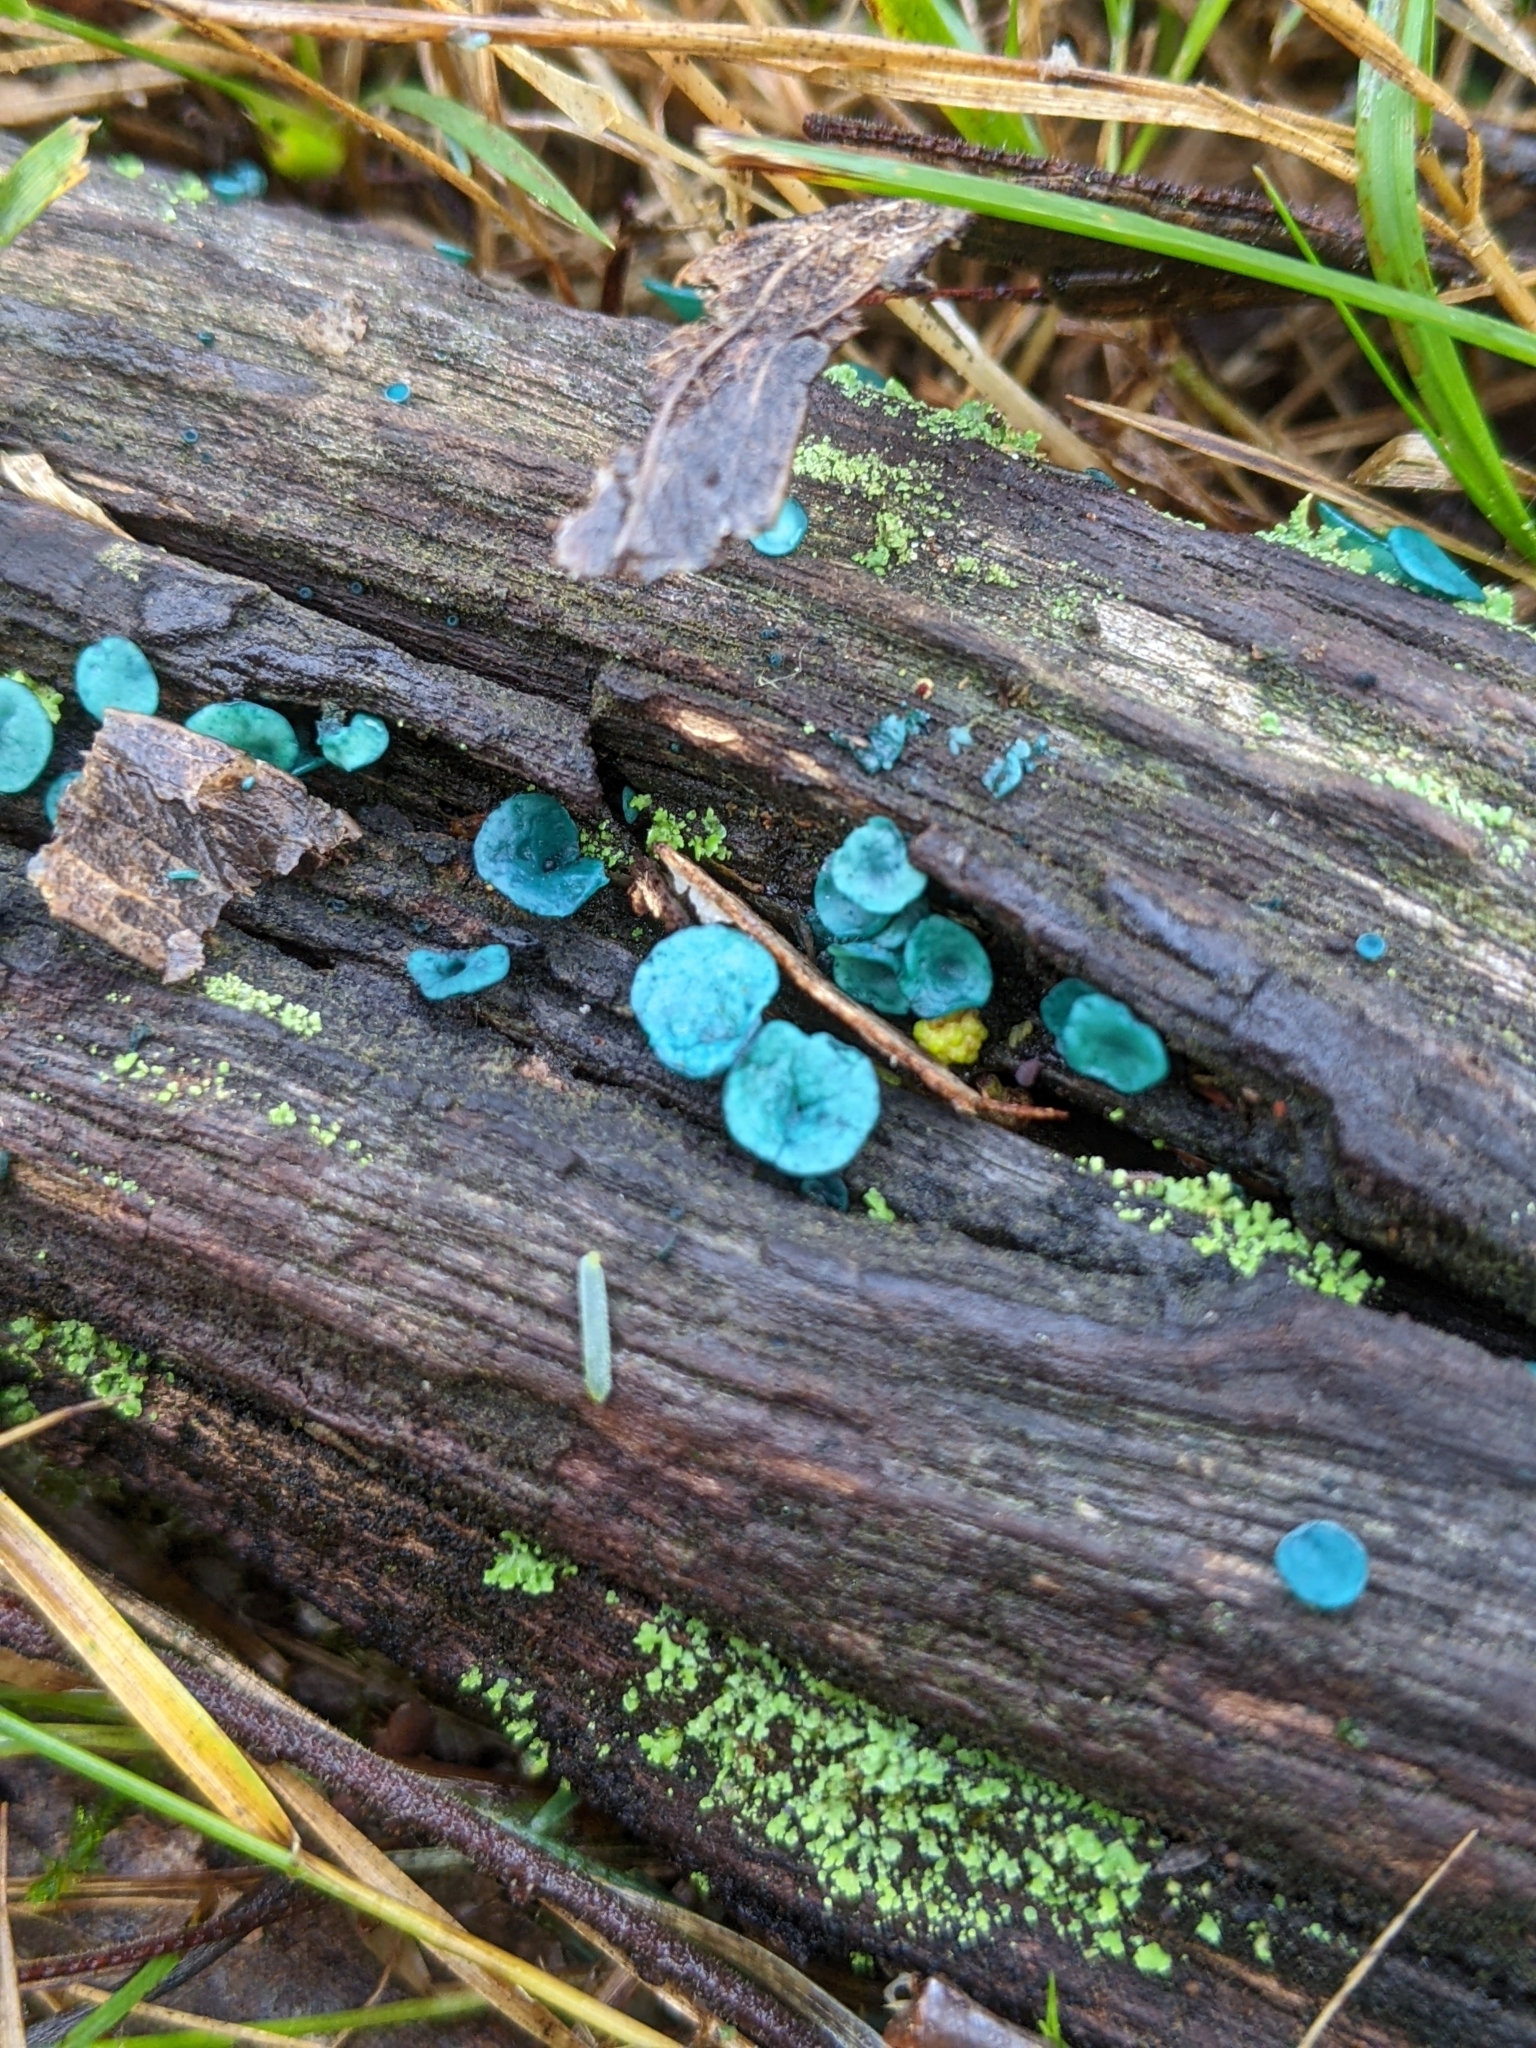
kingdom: Fungi
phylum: Ascomycota
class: Leotiomycetes
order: Helotiales
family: Chlorociboriaceae
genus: Chlorociboria
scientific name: Chlorociboria aeruginascens
